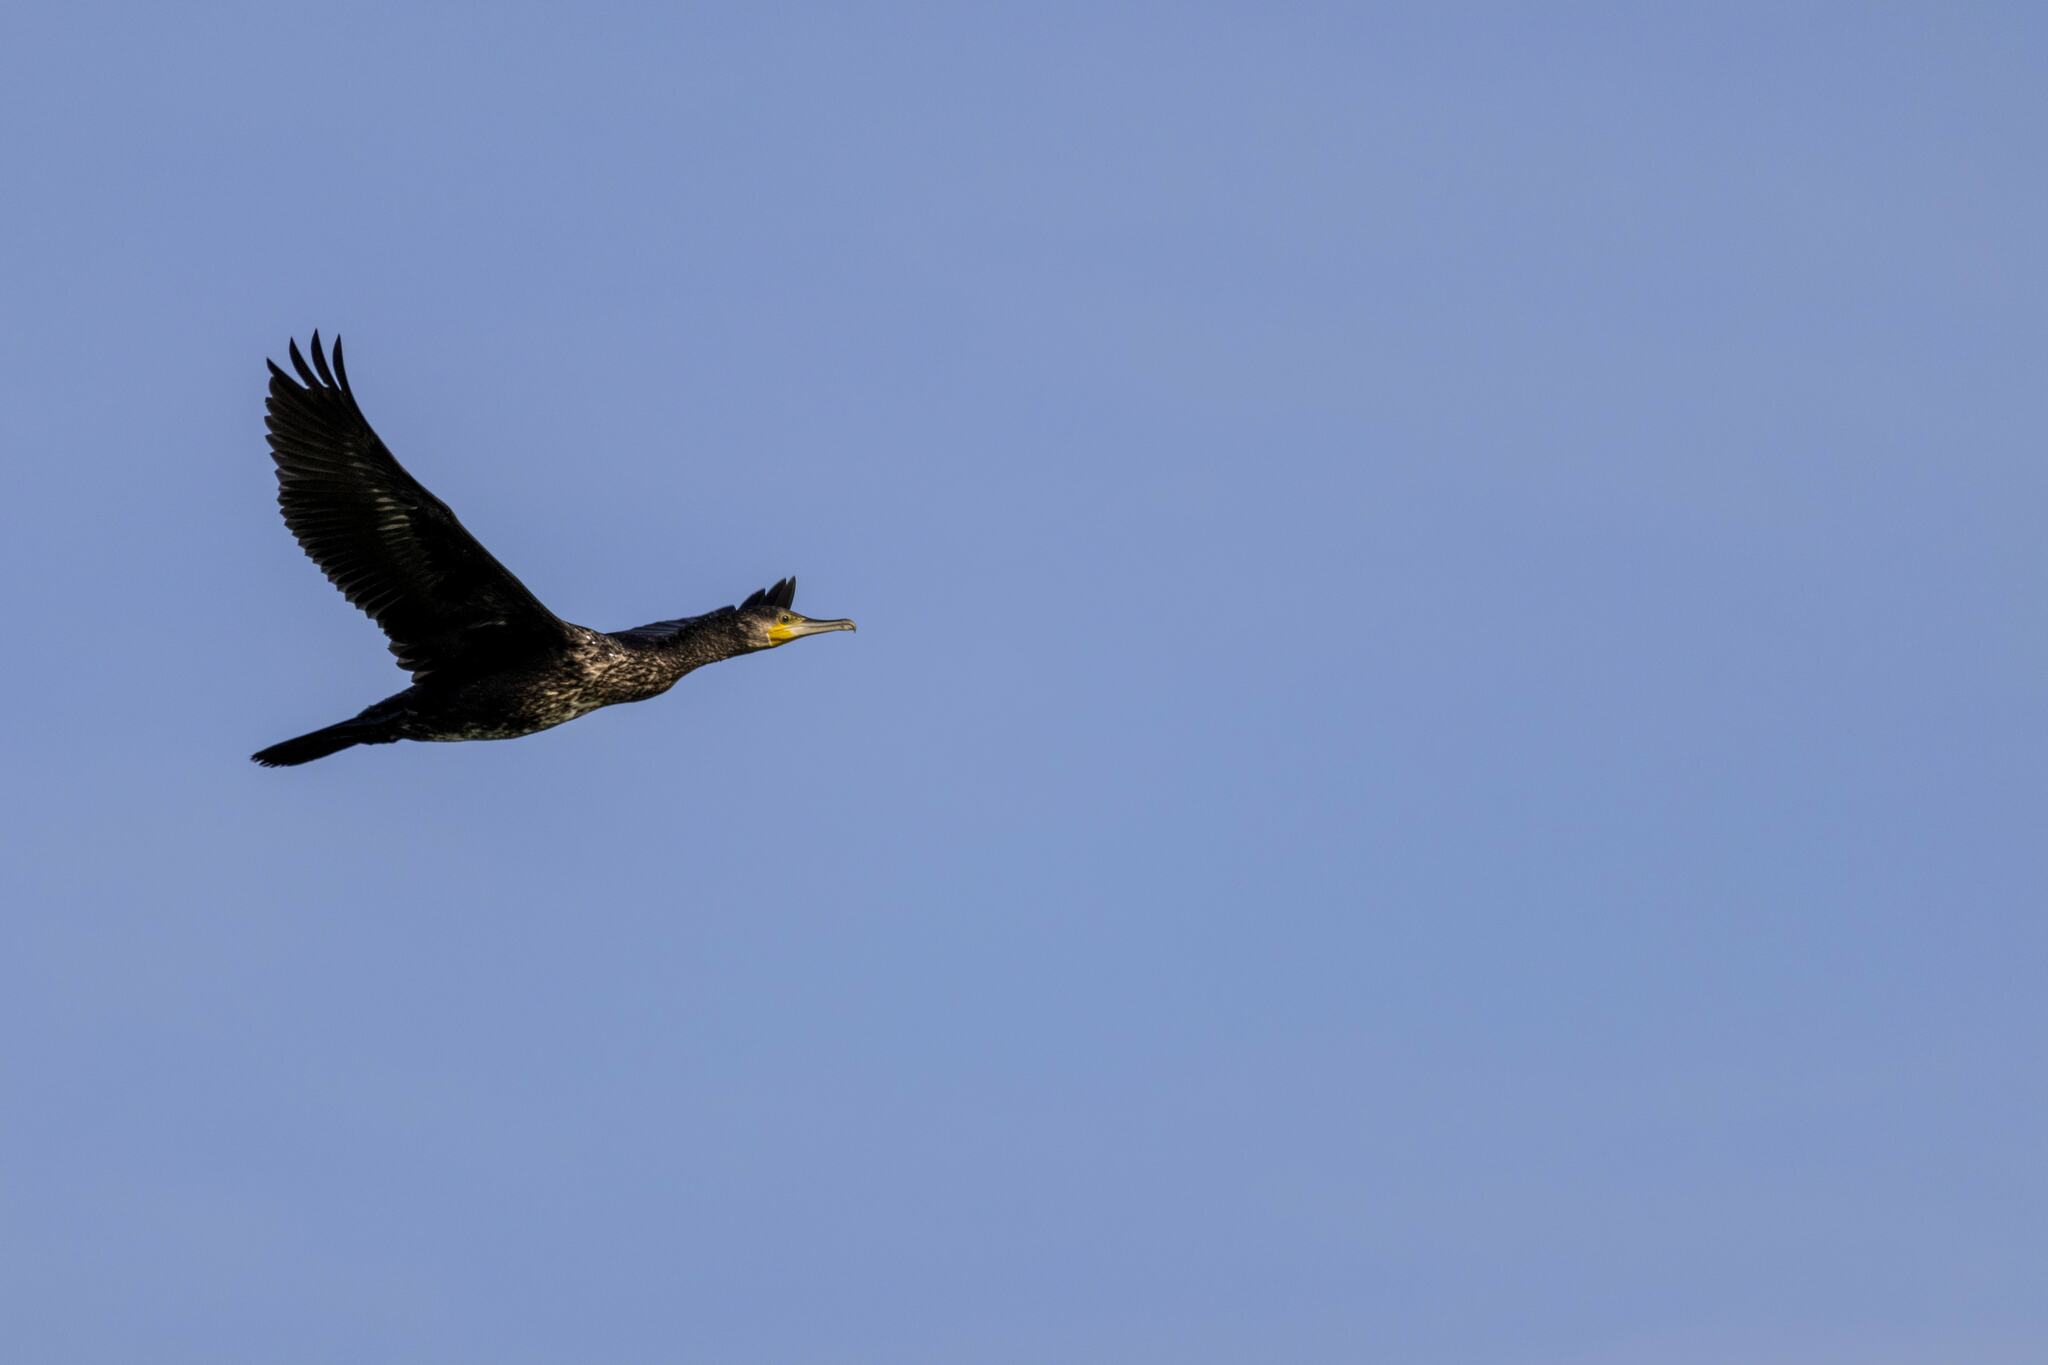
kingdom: Animalia
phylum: Chordata
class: Aves
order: Suliformes
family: Phalacrocoracidae
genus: Phalacrocorax
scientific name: Phalacrocorax carbo
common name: Great cormorant
